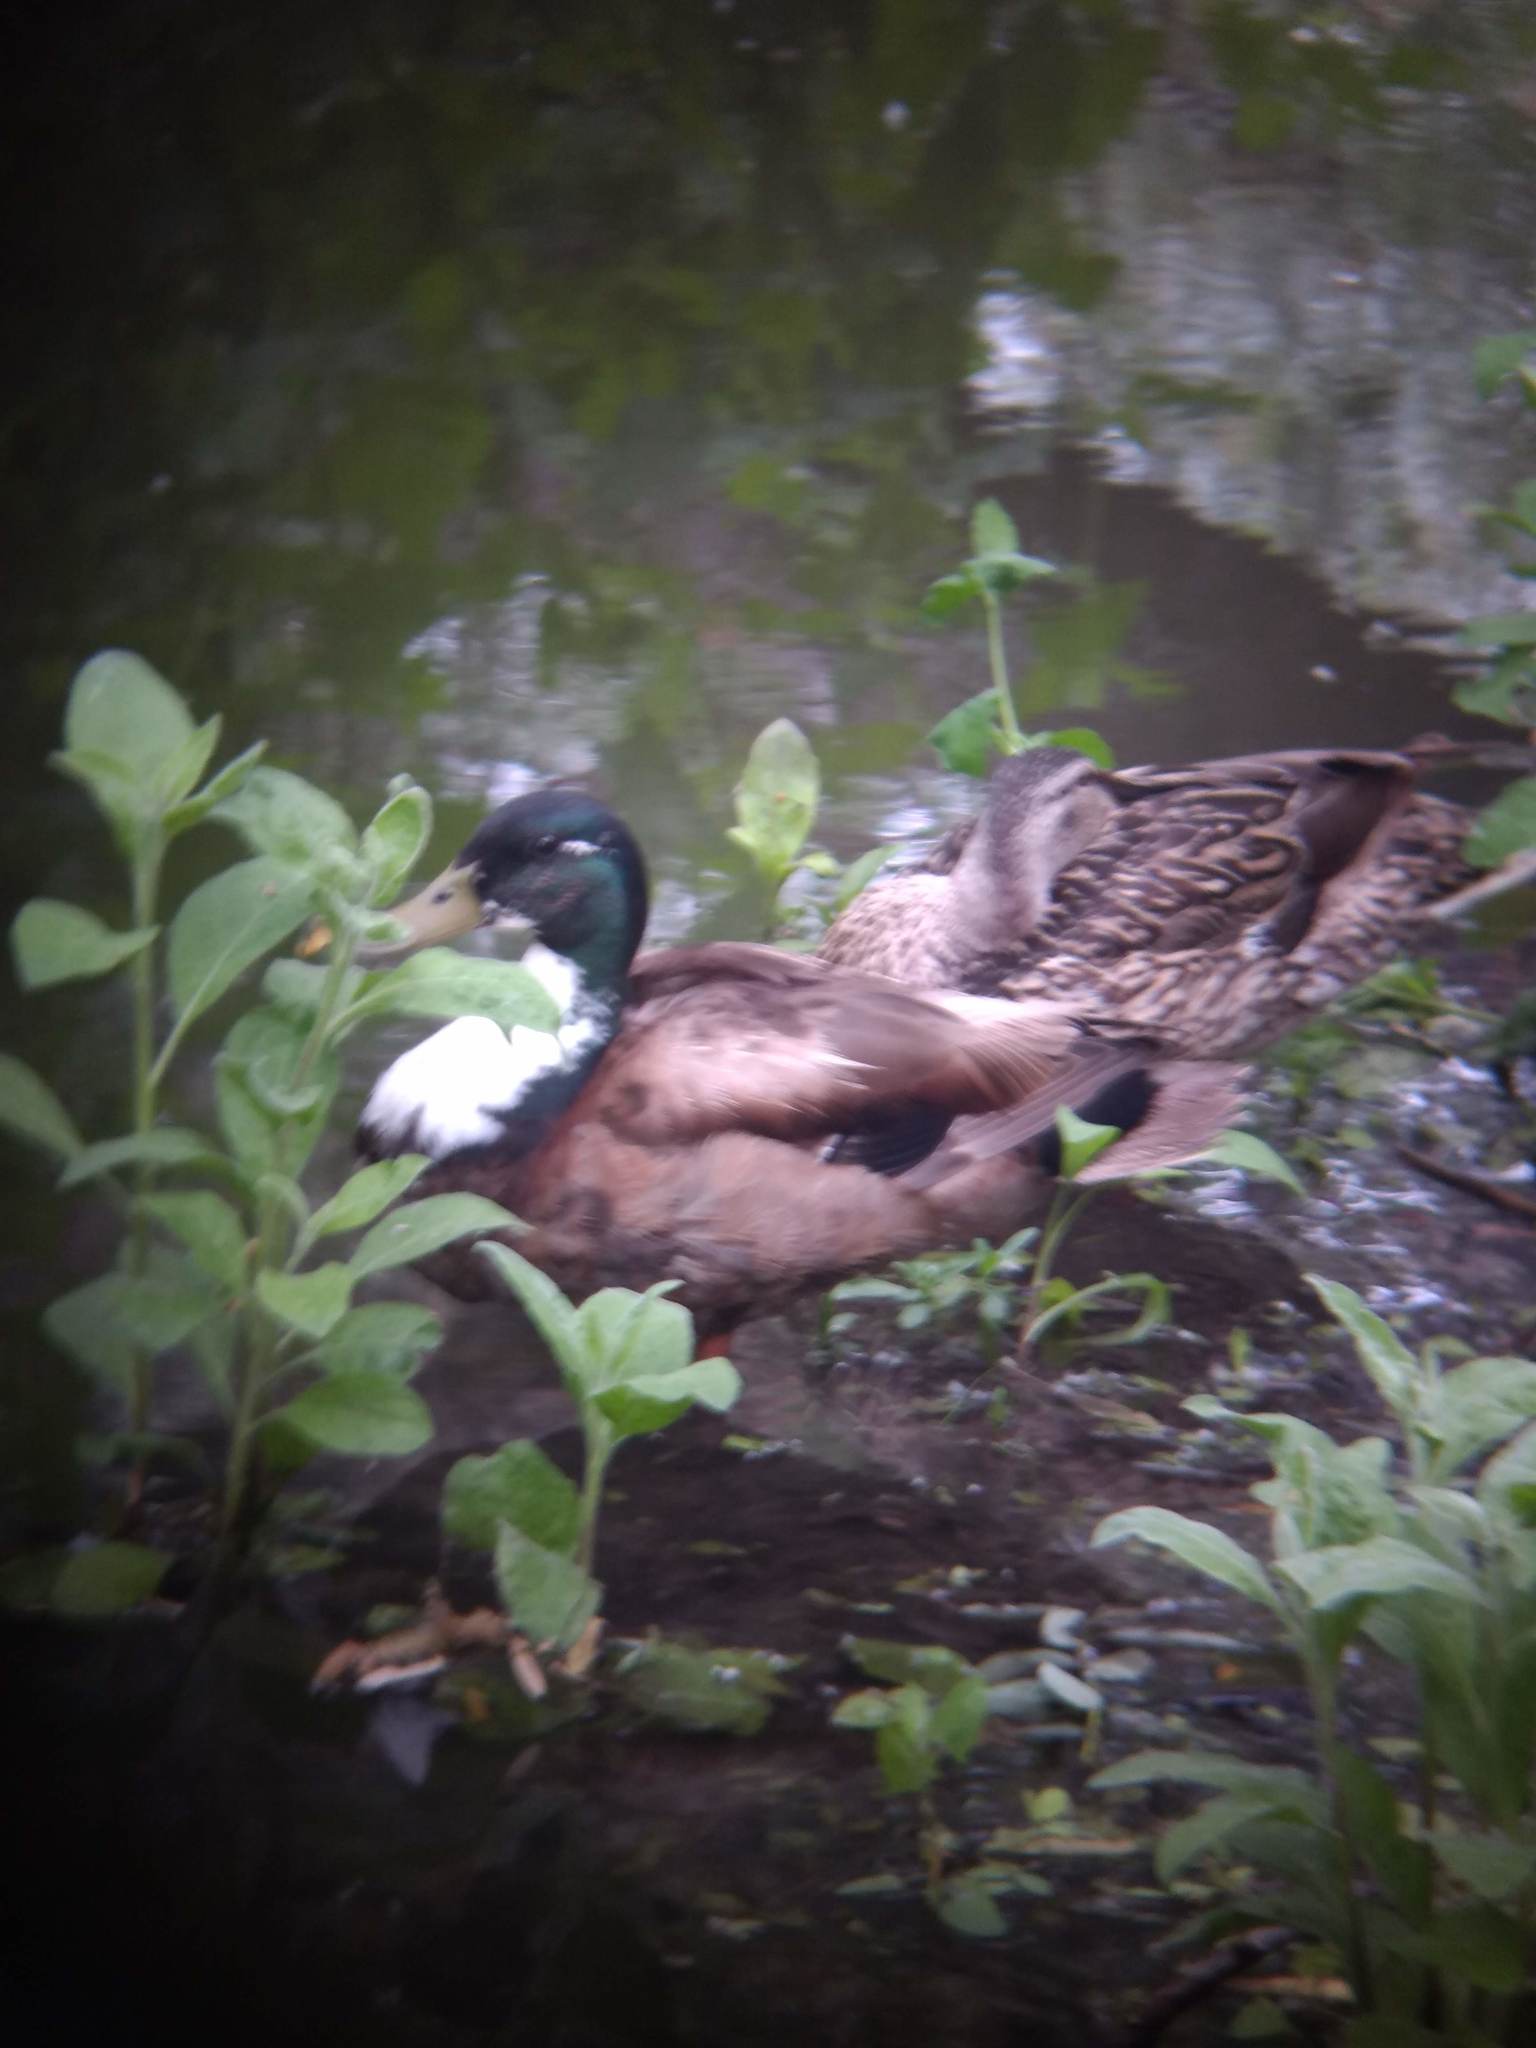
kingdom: Animalia
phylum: Chordata
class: Aves
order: Anseriformes
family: Anatidae
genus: Anas
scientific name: Anas platyrhynchos
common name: Mallard
